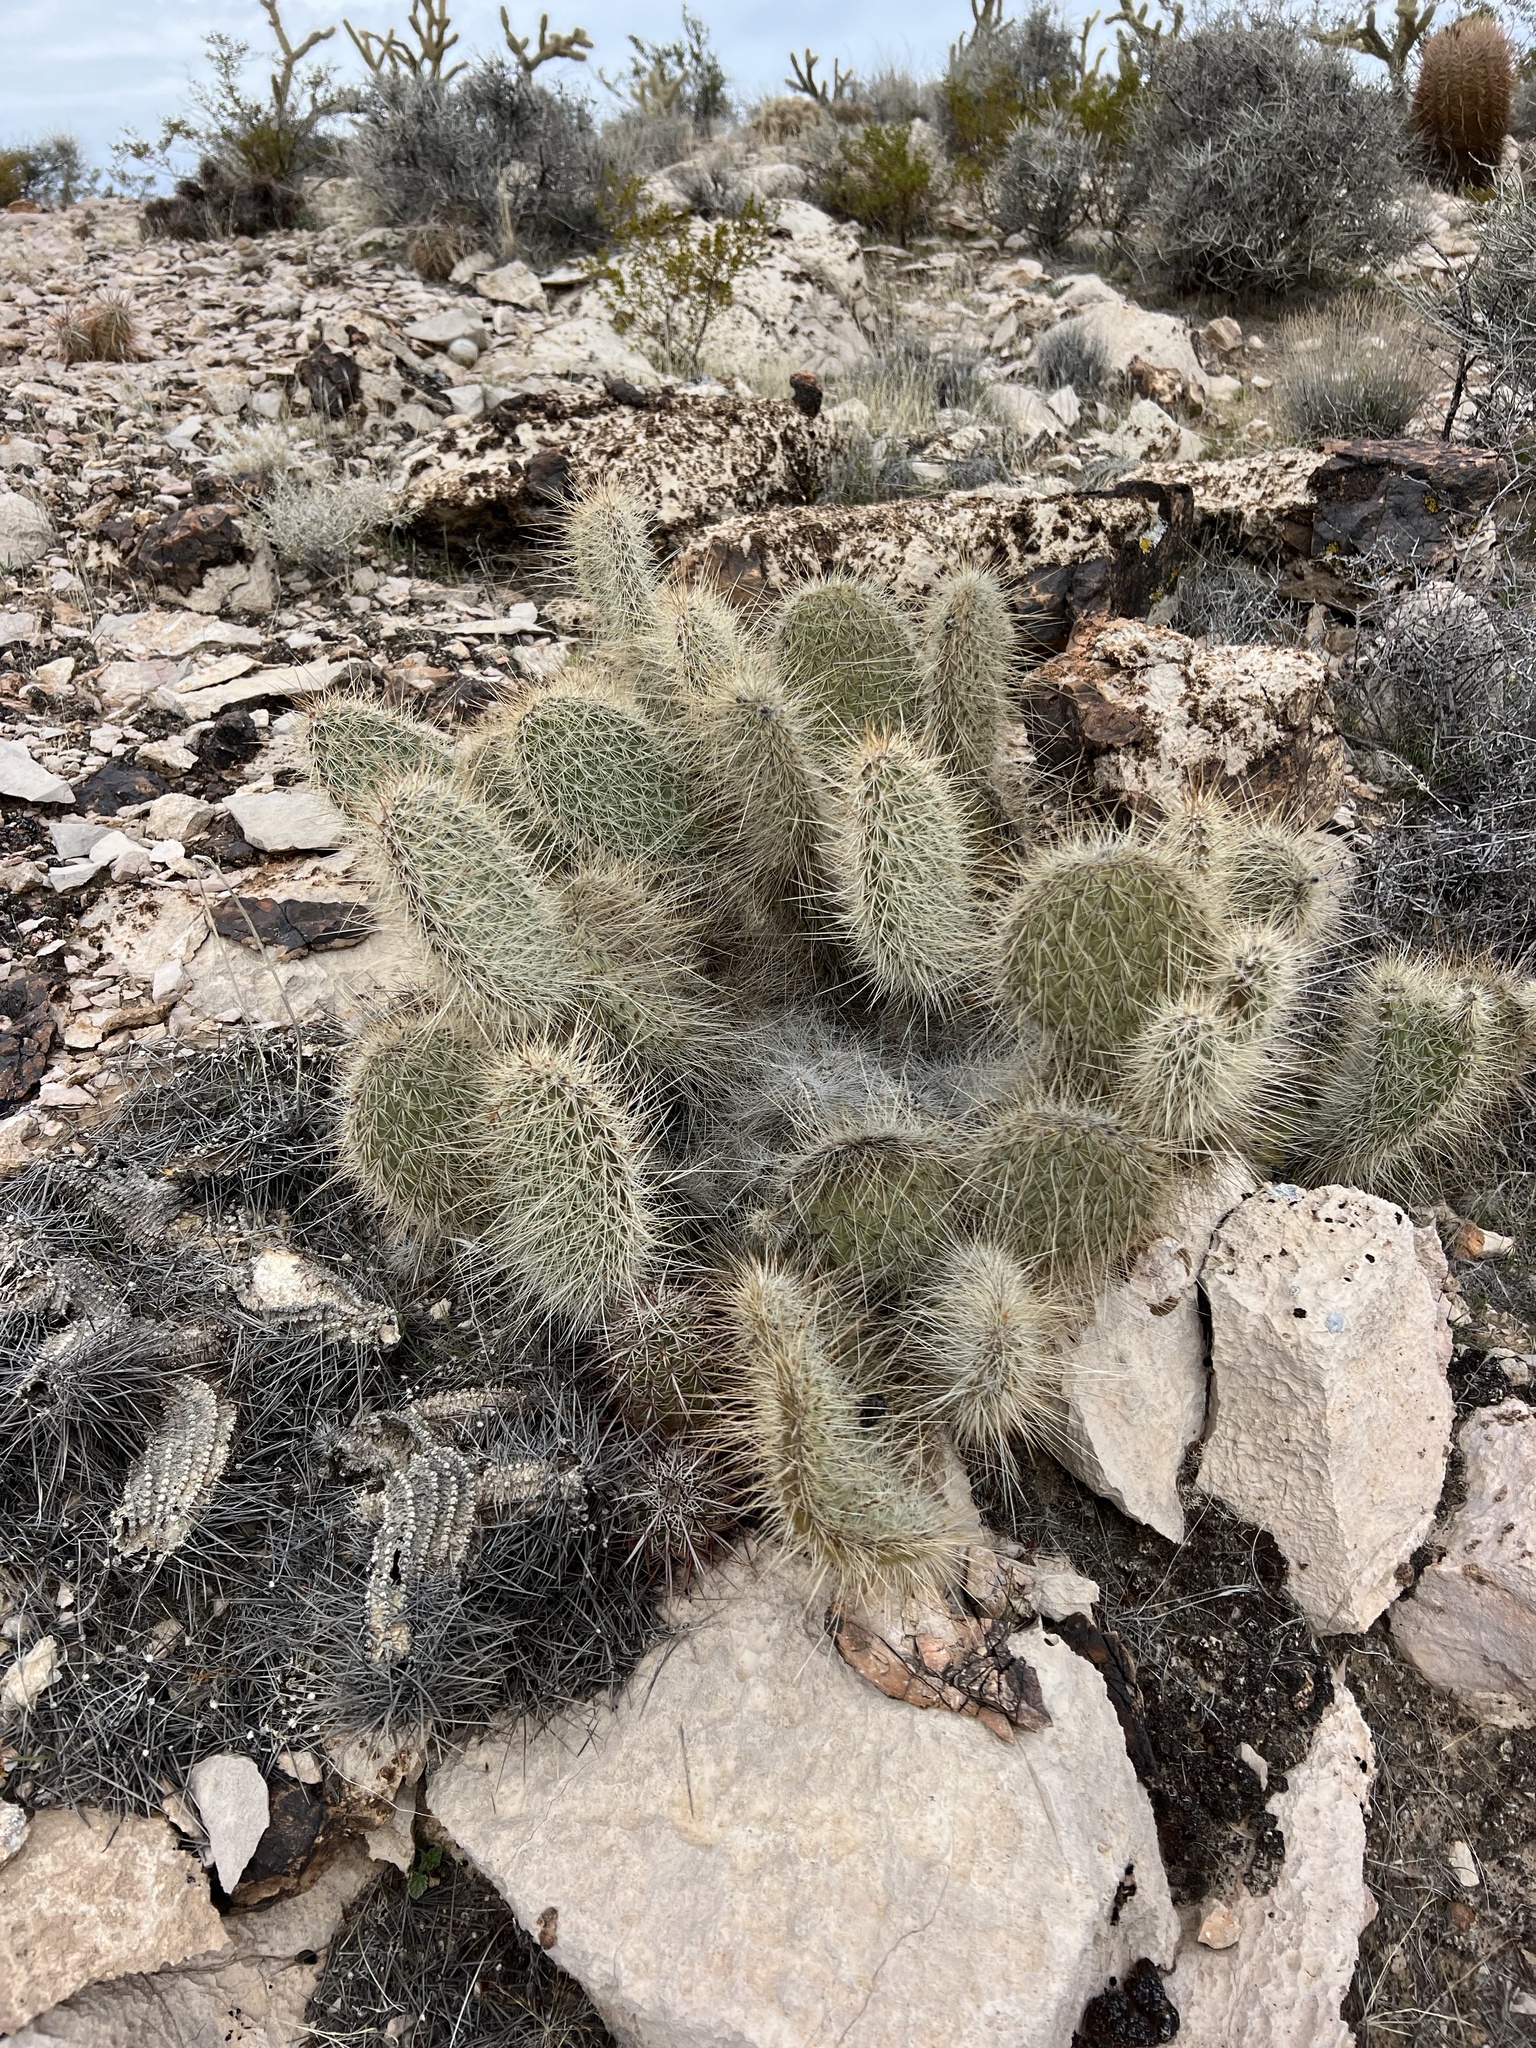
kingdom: Plantae
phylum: Tracheophyta
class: Magnoliopsida
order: Caryophyllales
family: Cactaceae
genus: Opuntia
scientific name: Opuntia polyacantha
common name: Plains prickly-pear
